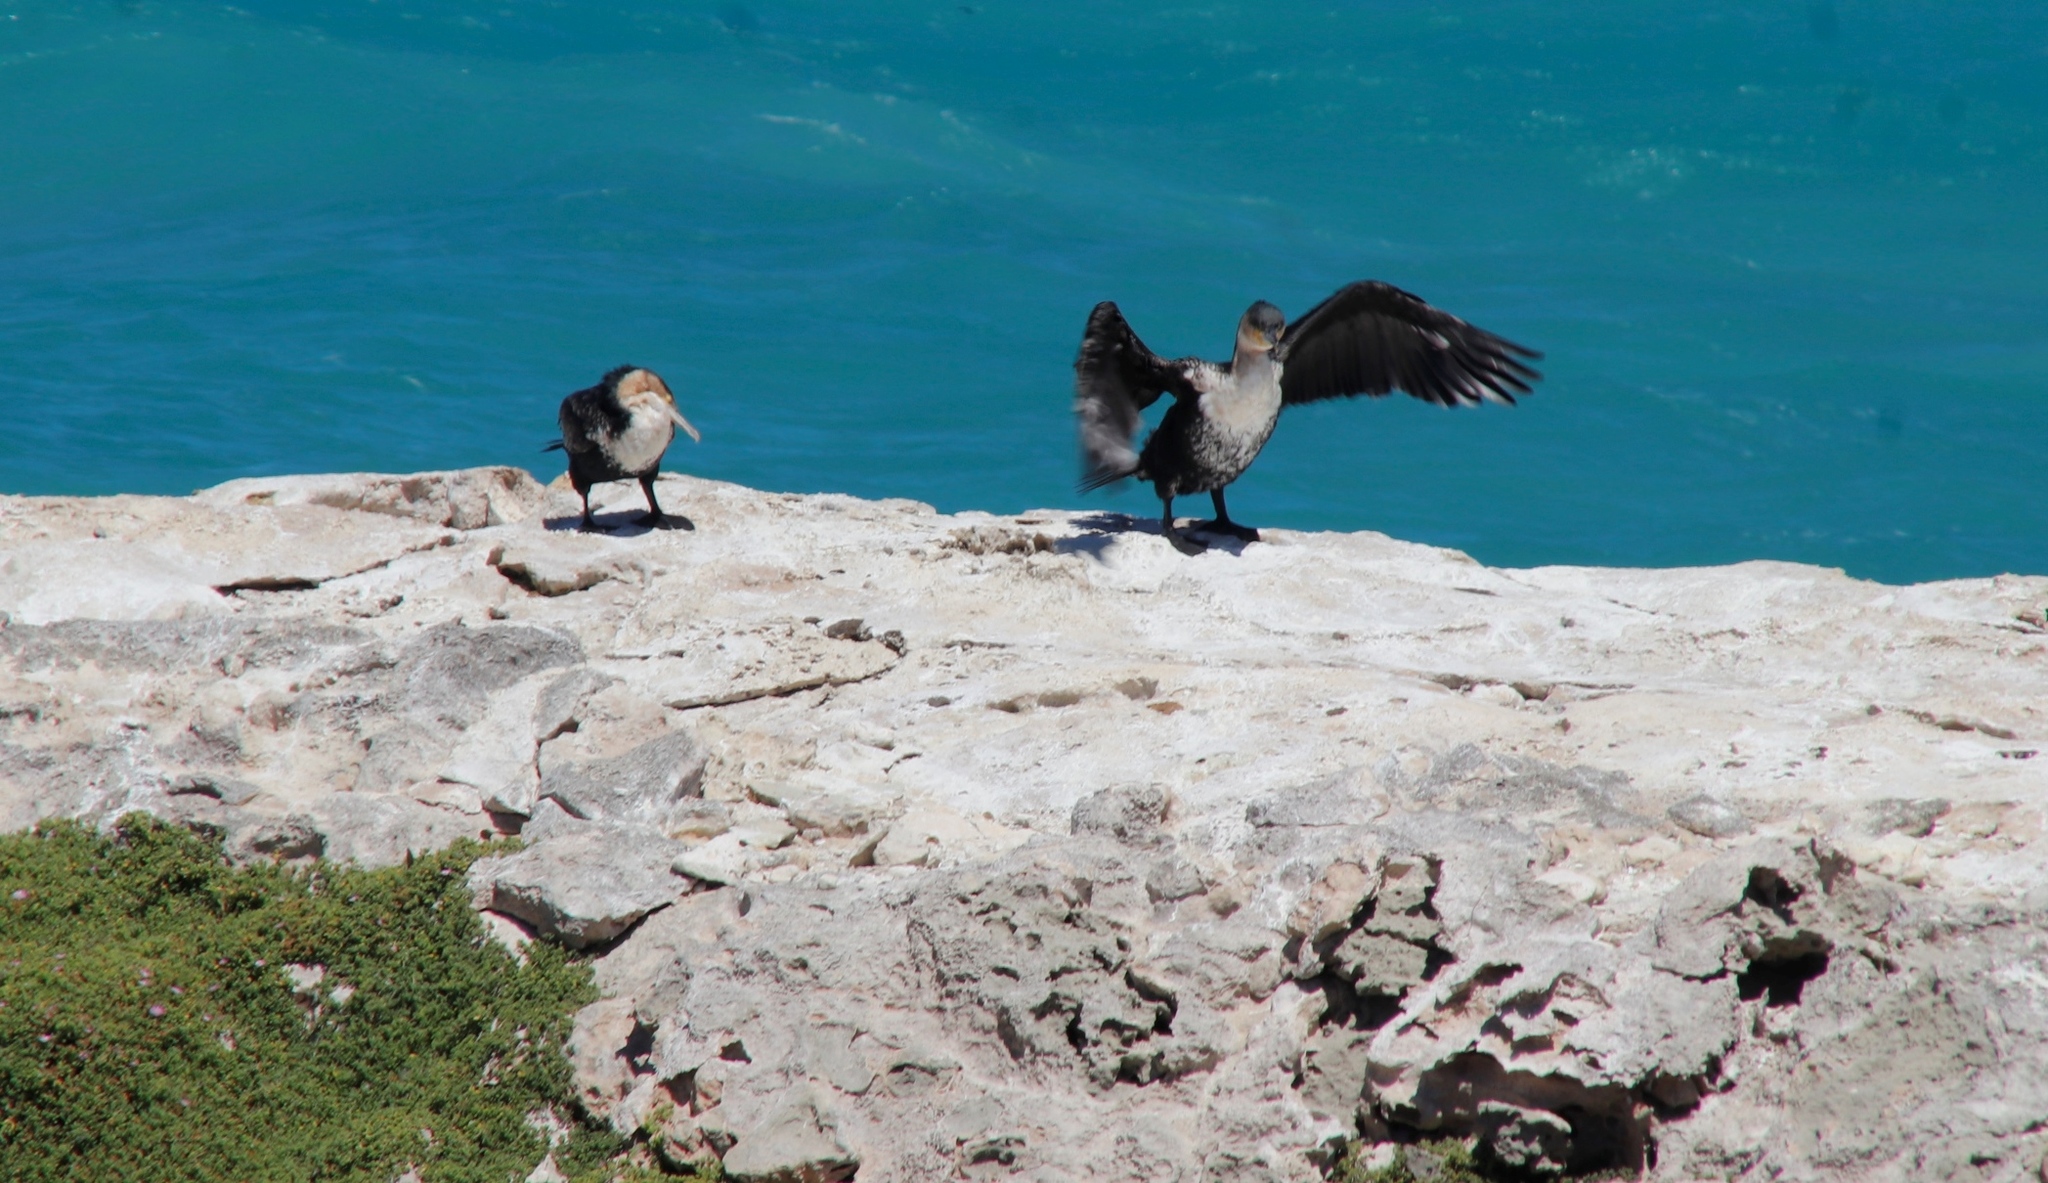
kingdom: Animalia
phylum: Chordata
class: Aves
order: Suliformes
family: Phalacrocoracidae
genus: Phalacrocorax
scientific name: Phalacrocorax carbo
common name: Great cormorant
